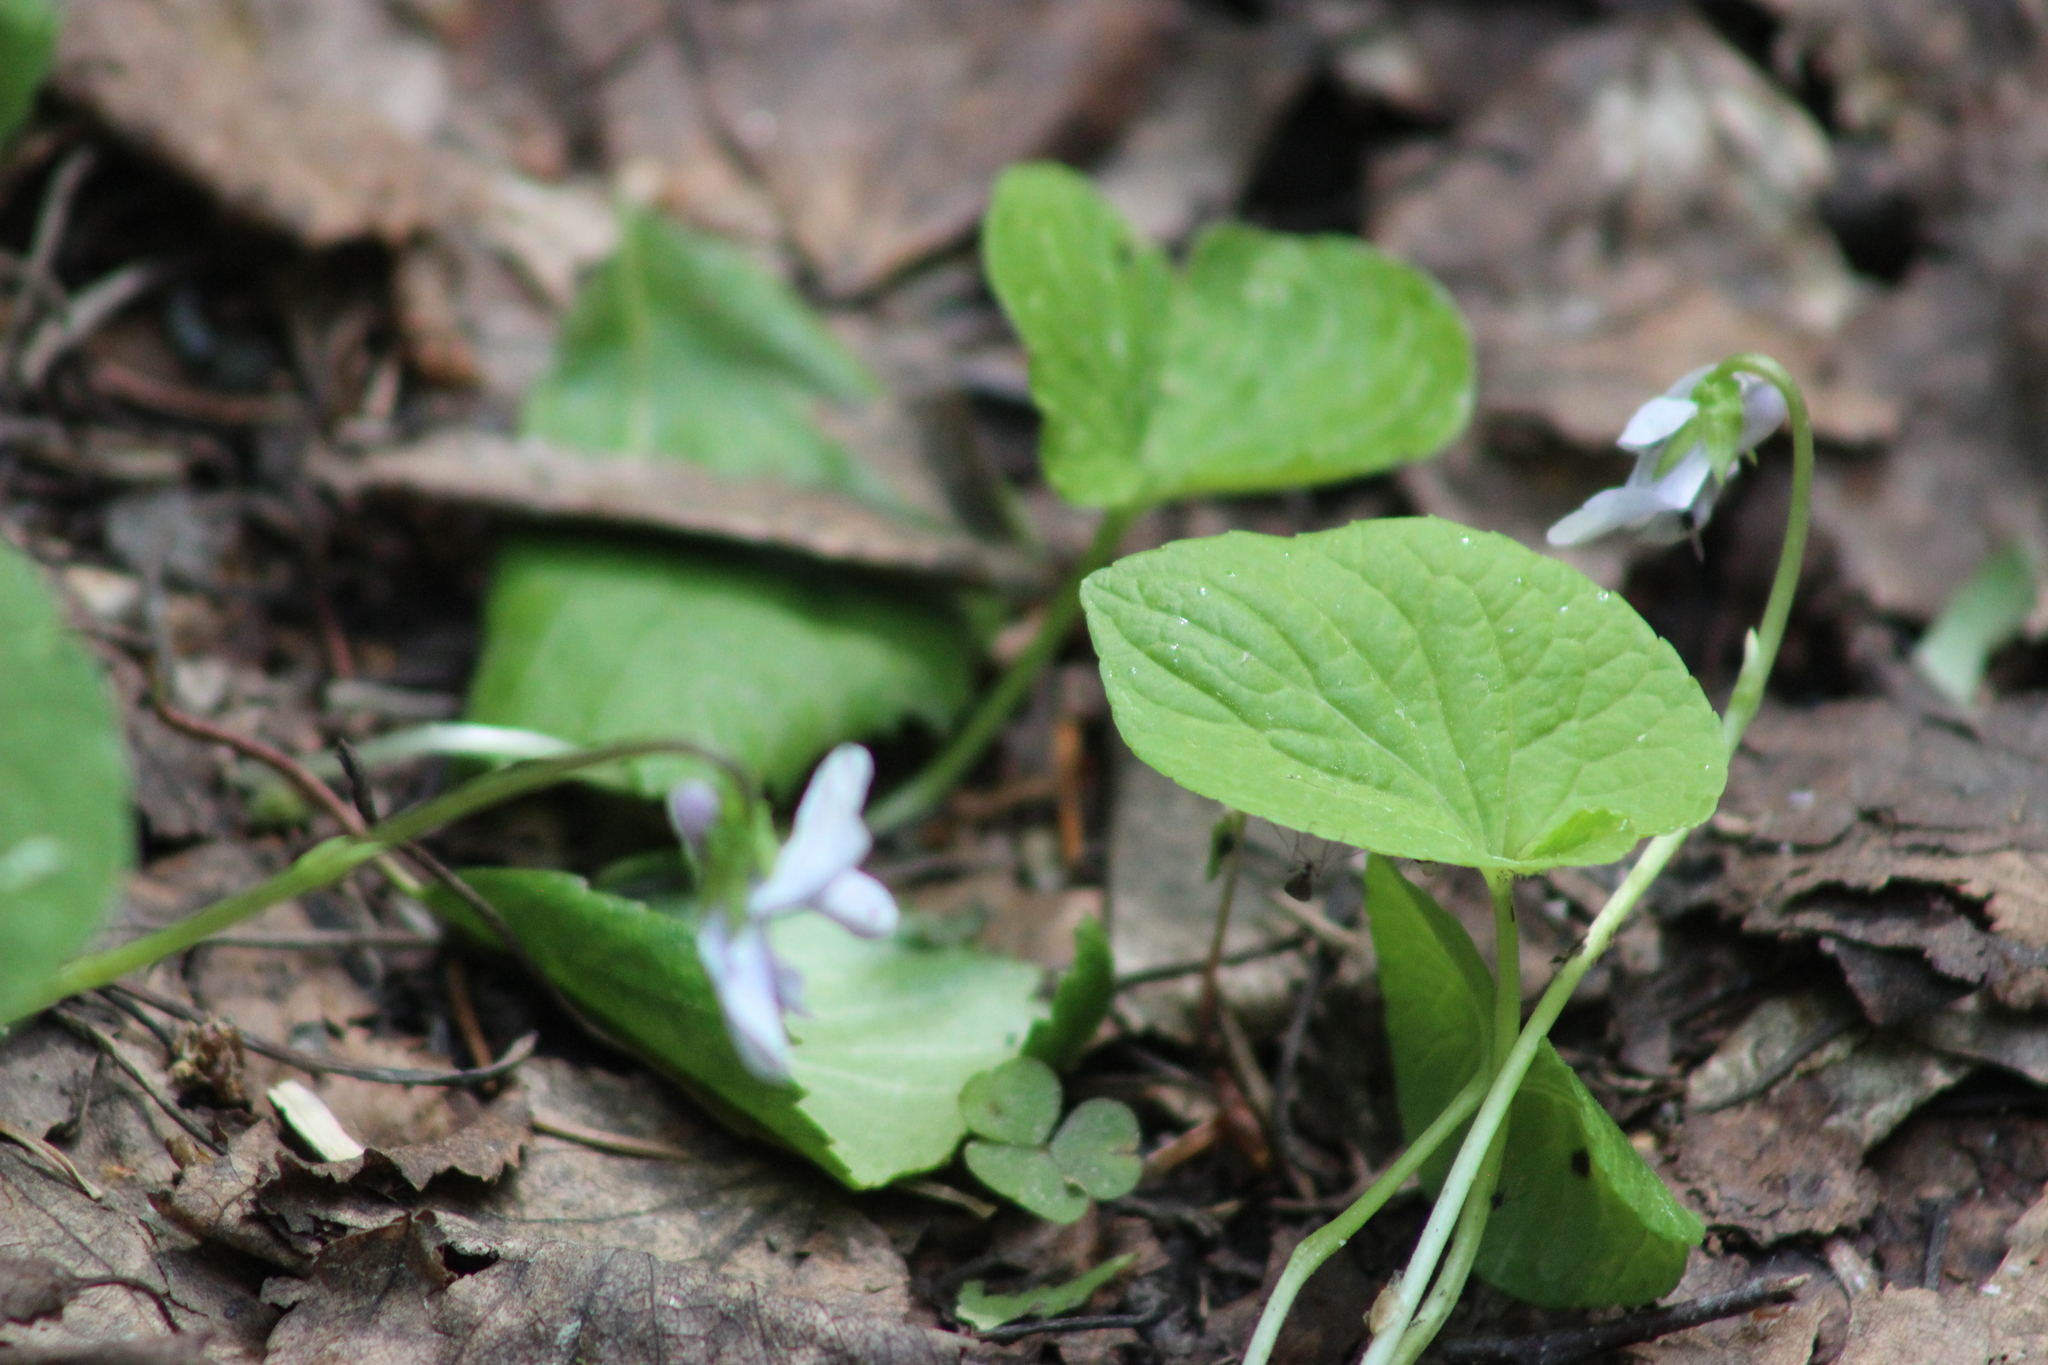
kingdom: Plantae
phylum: Tracheophyta
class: Magnoliopsida
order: Malpighiales
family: Violaceae
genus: Viola
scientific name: Viola epipsila
